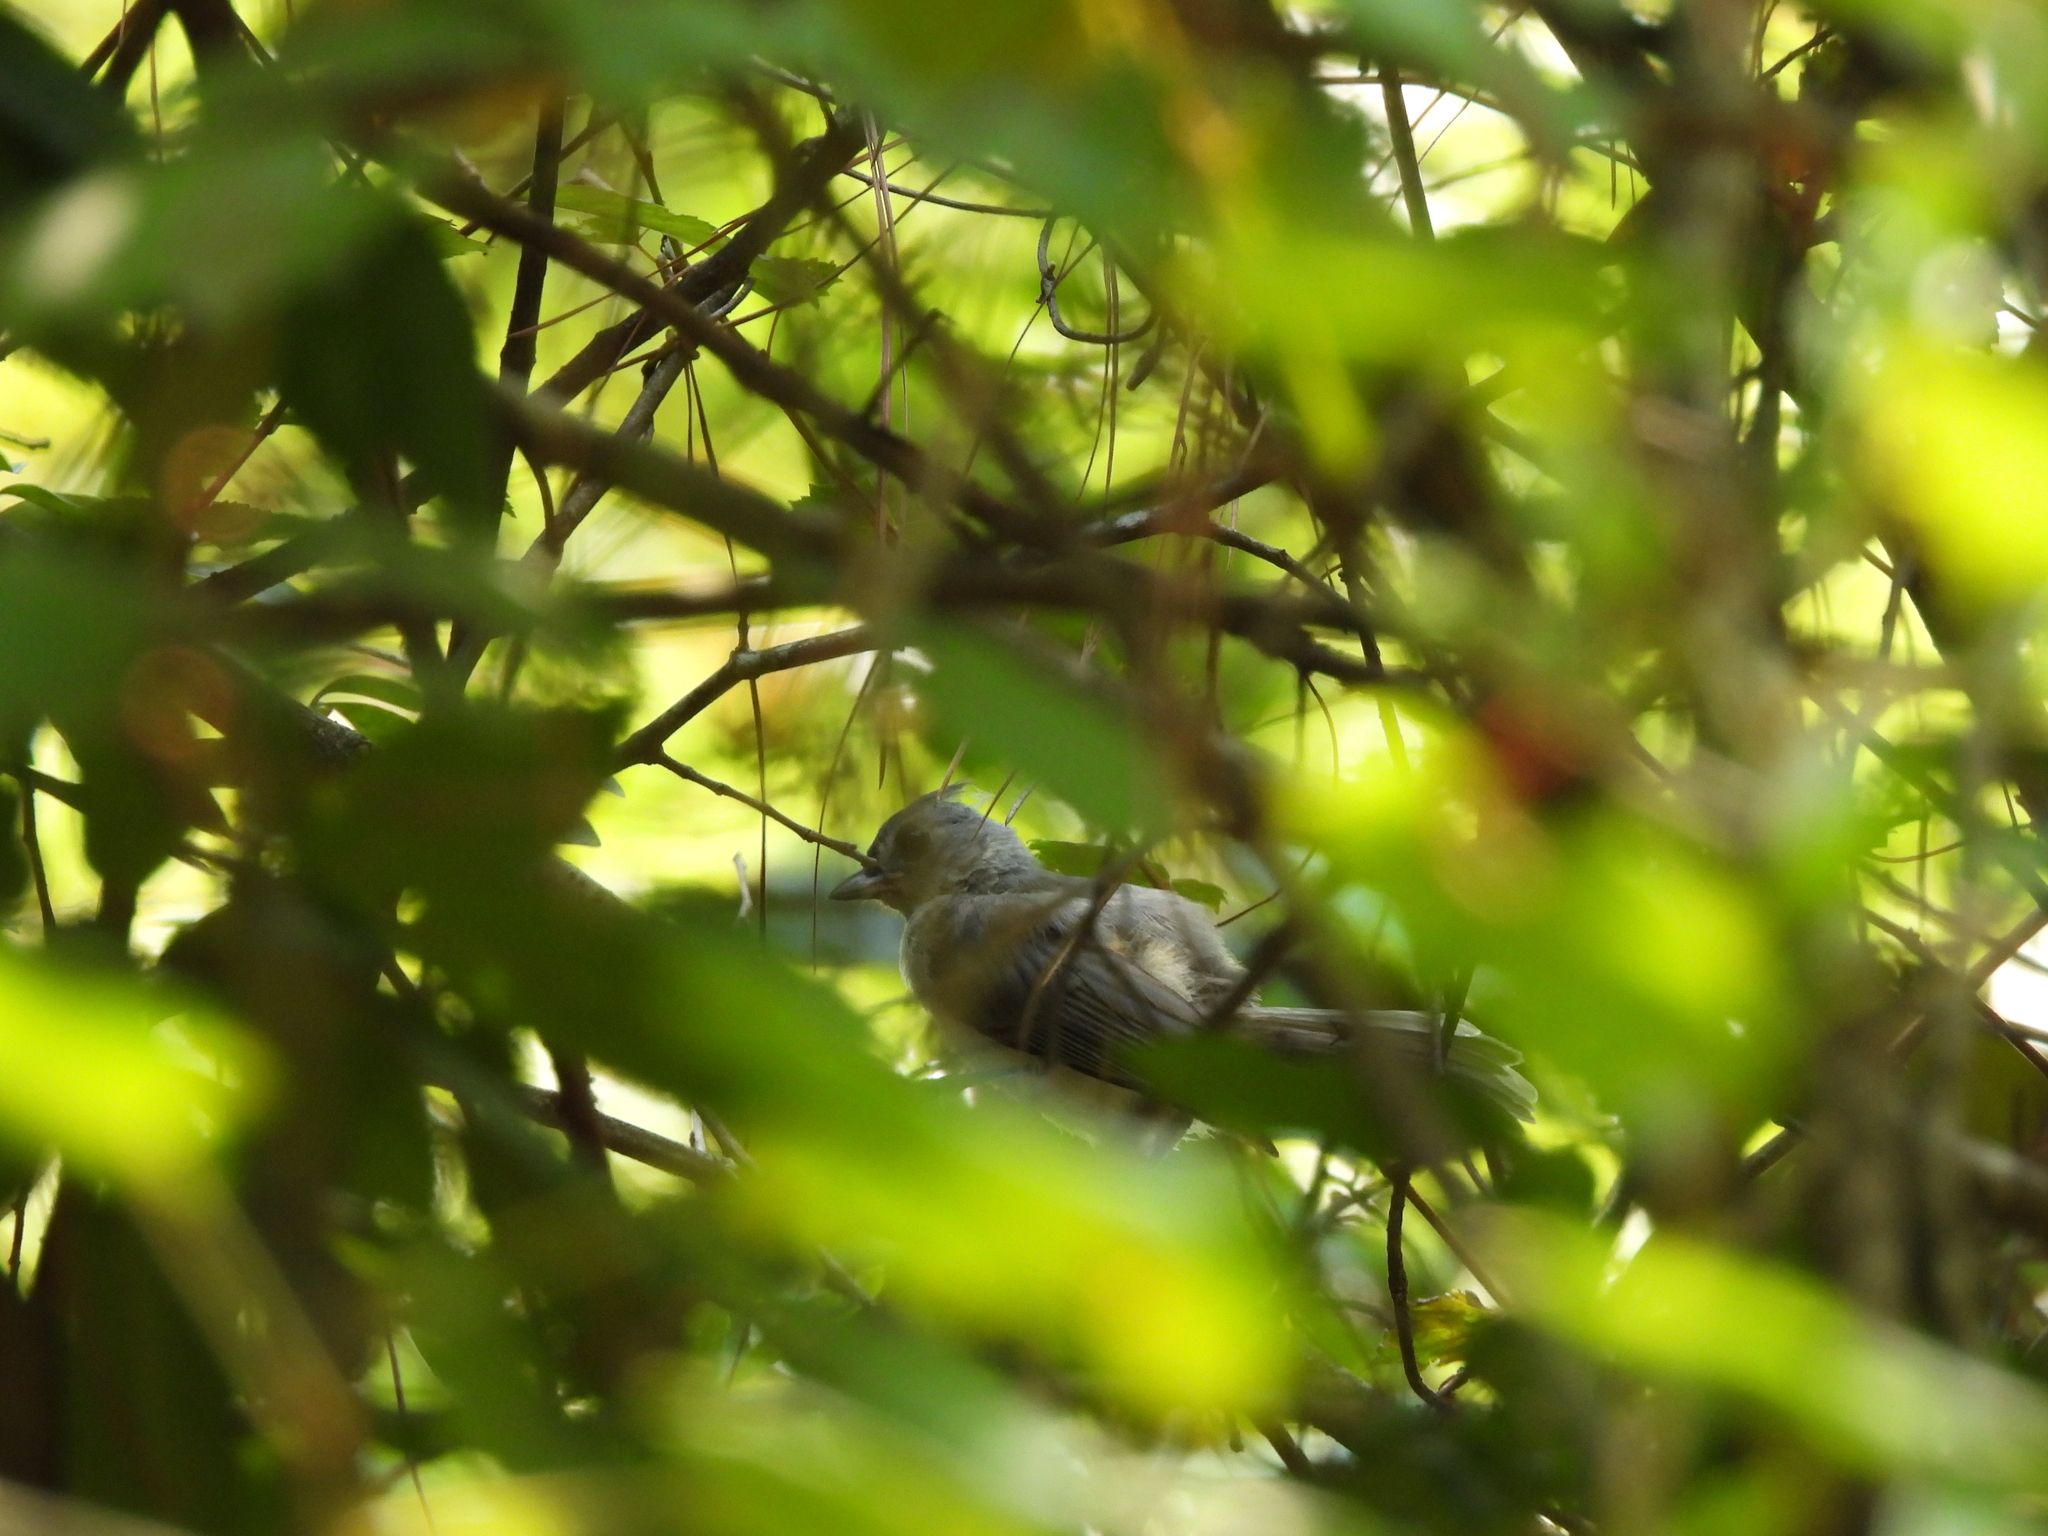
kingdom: Animalia
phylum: Chordata
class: Aves
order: Passeriformes
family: Paridae
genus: Baeolophus
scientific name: Baeolophus bicolor
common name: Tufted titmouse
